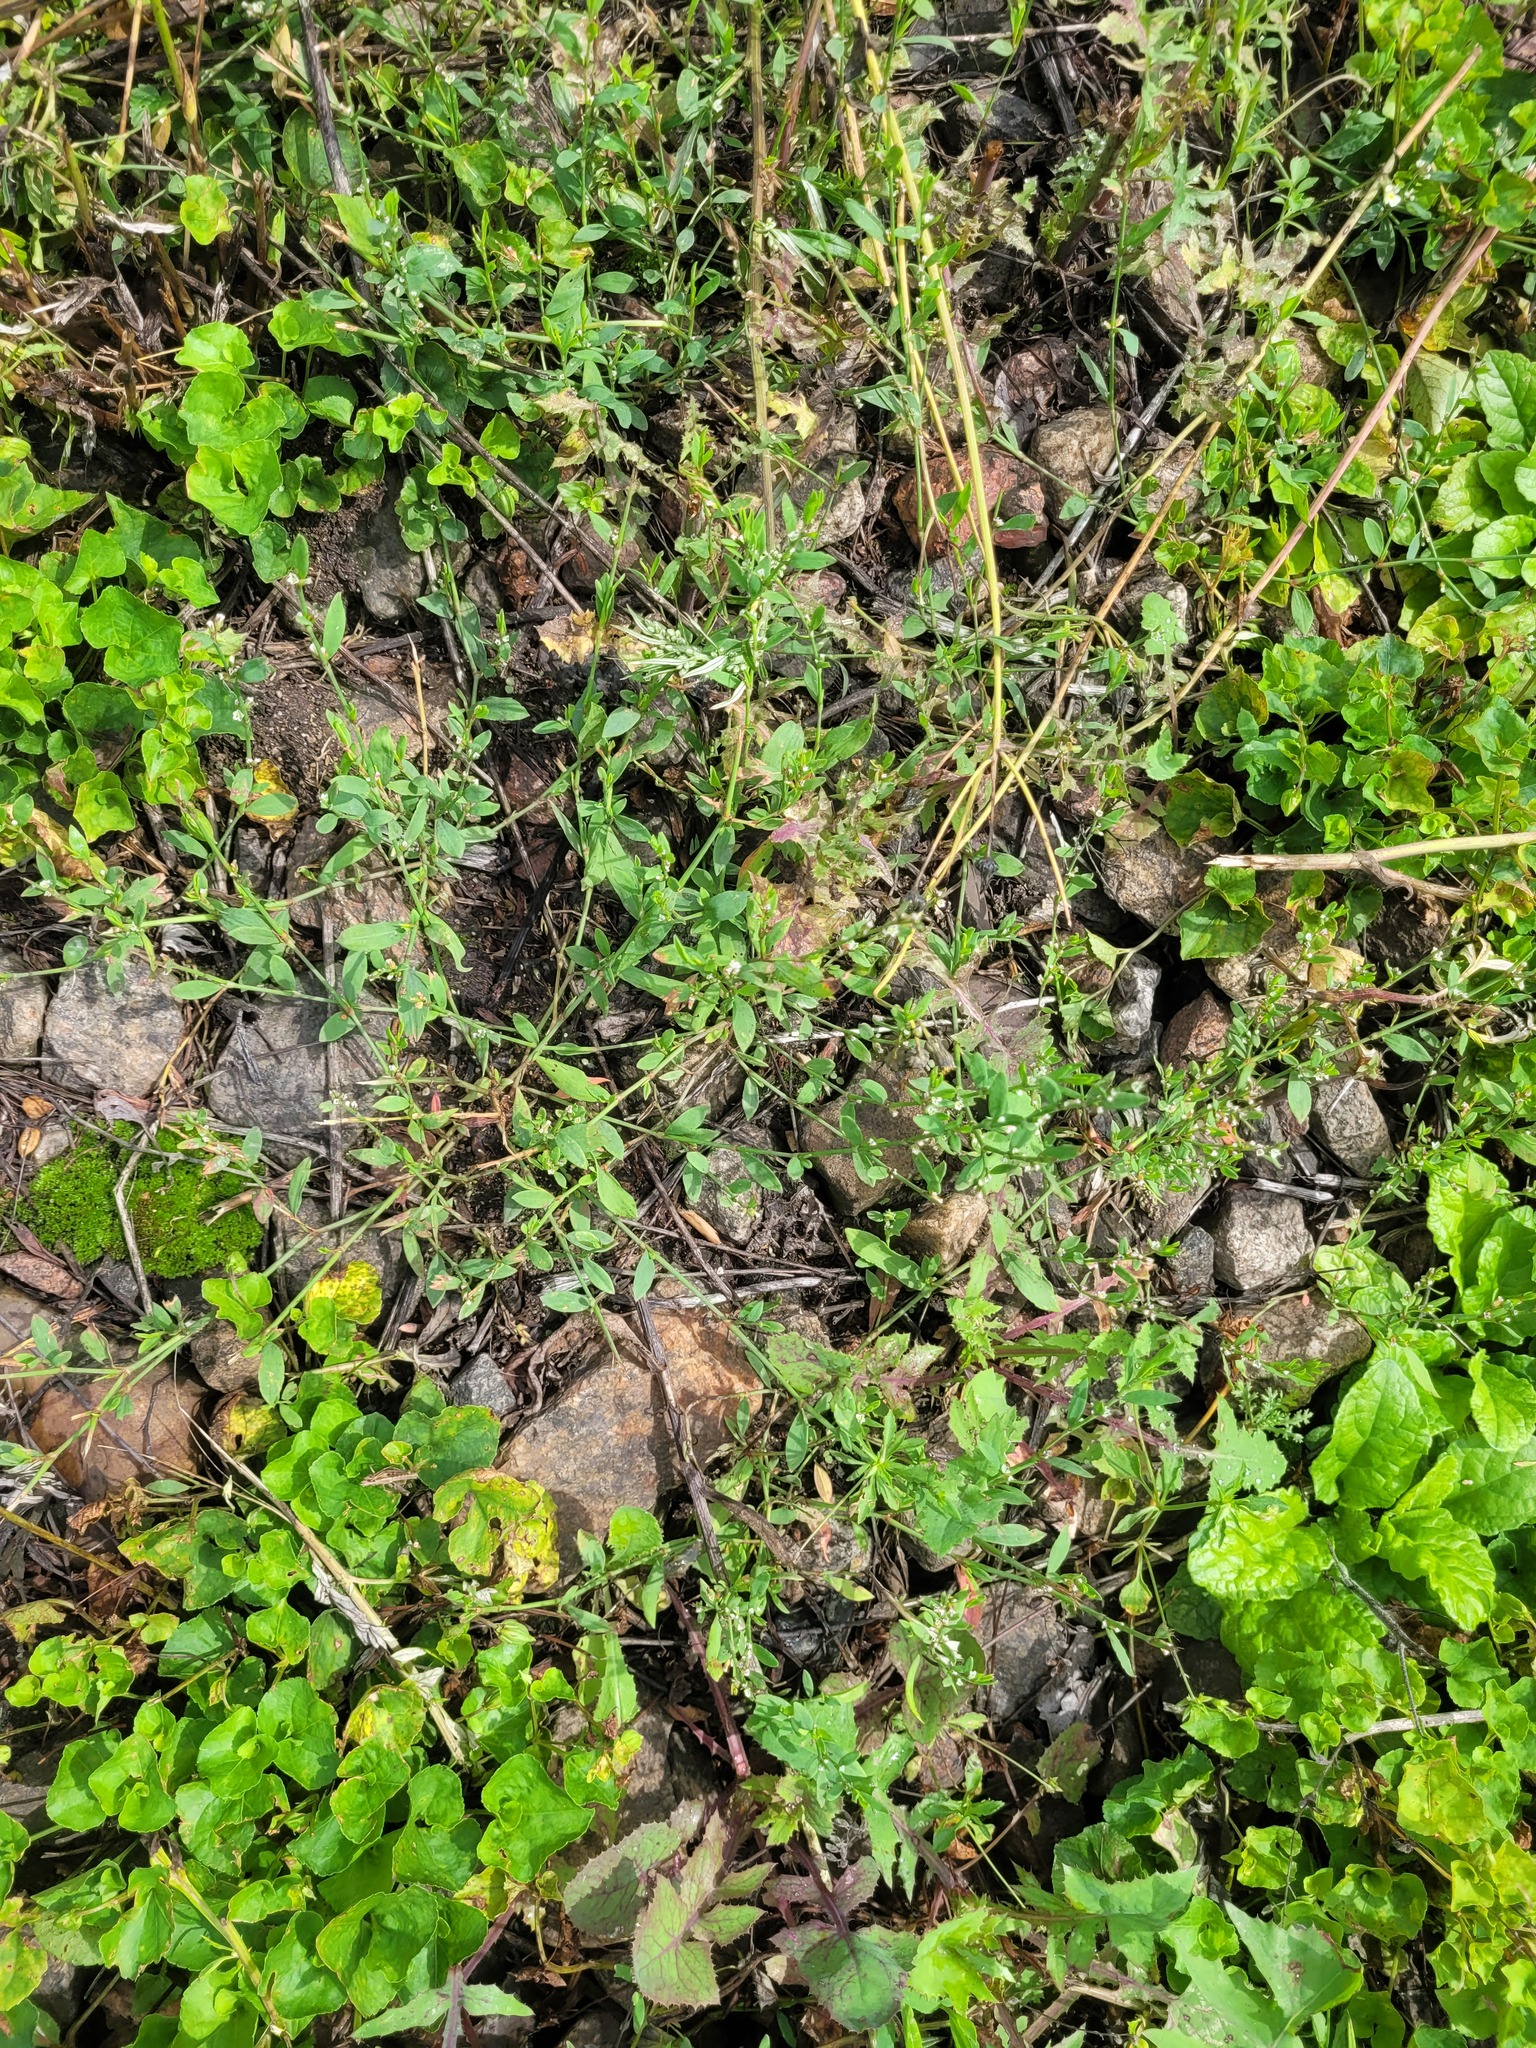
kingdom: Plantae
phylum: Tracheophyta
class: Magnoliopsida
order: Caryophyllales
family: Polygonaceae
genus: Polygonum
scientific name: Polygonum
